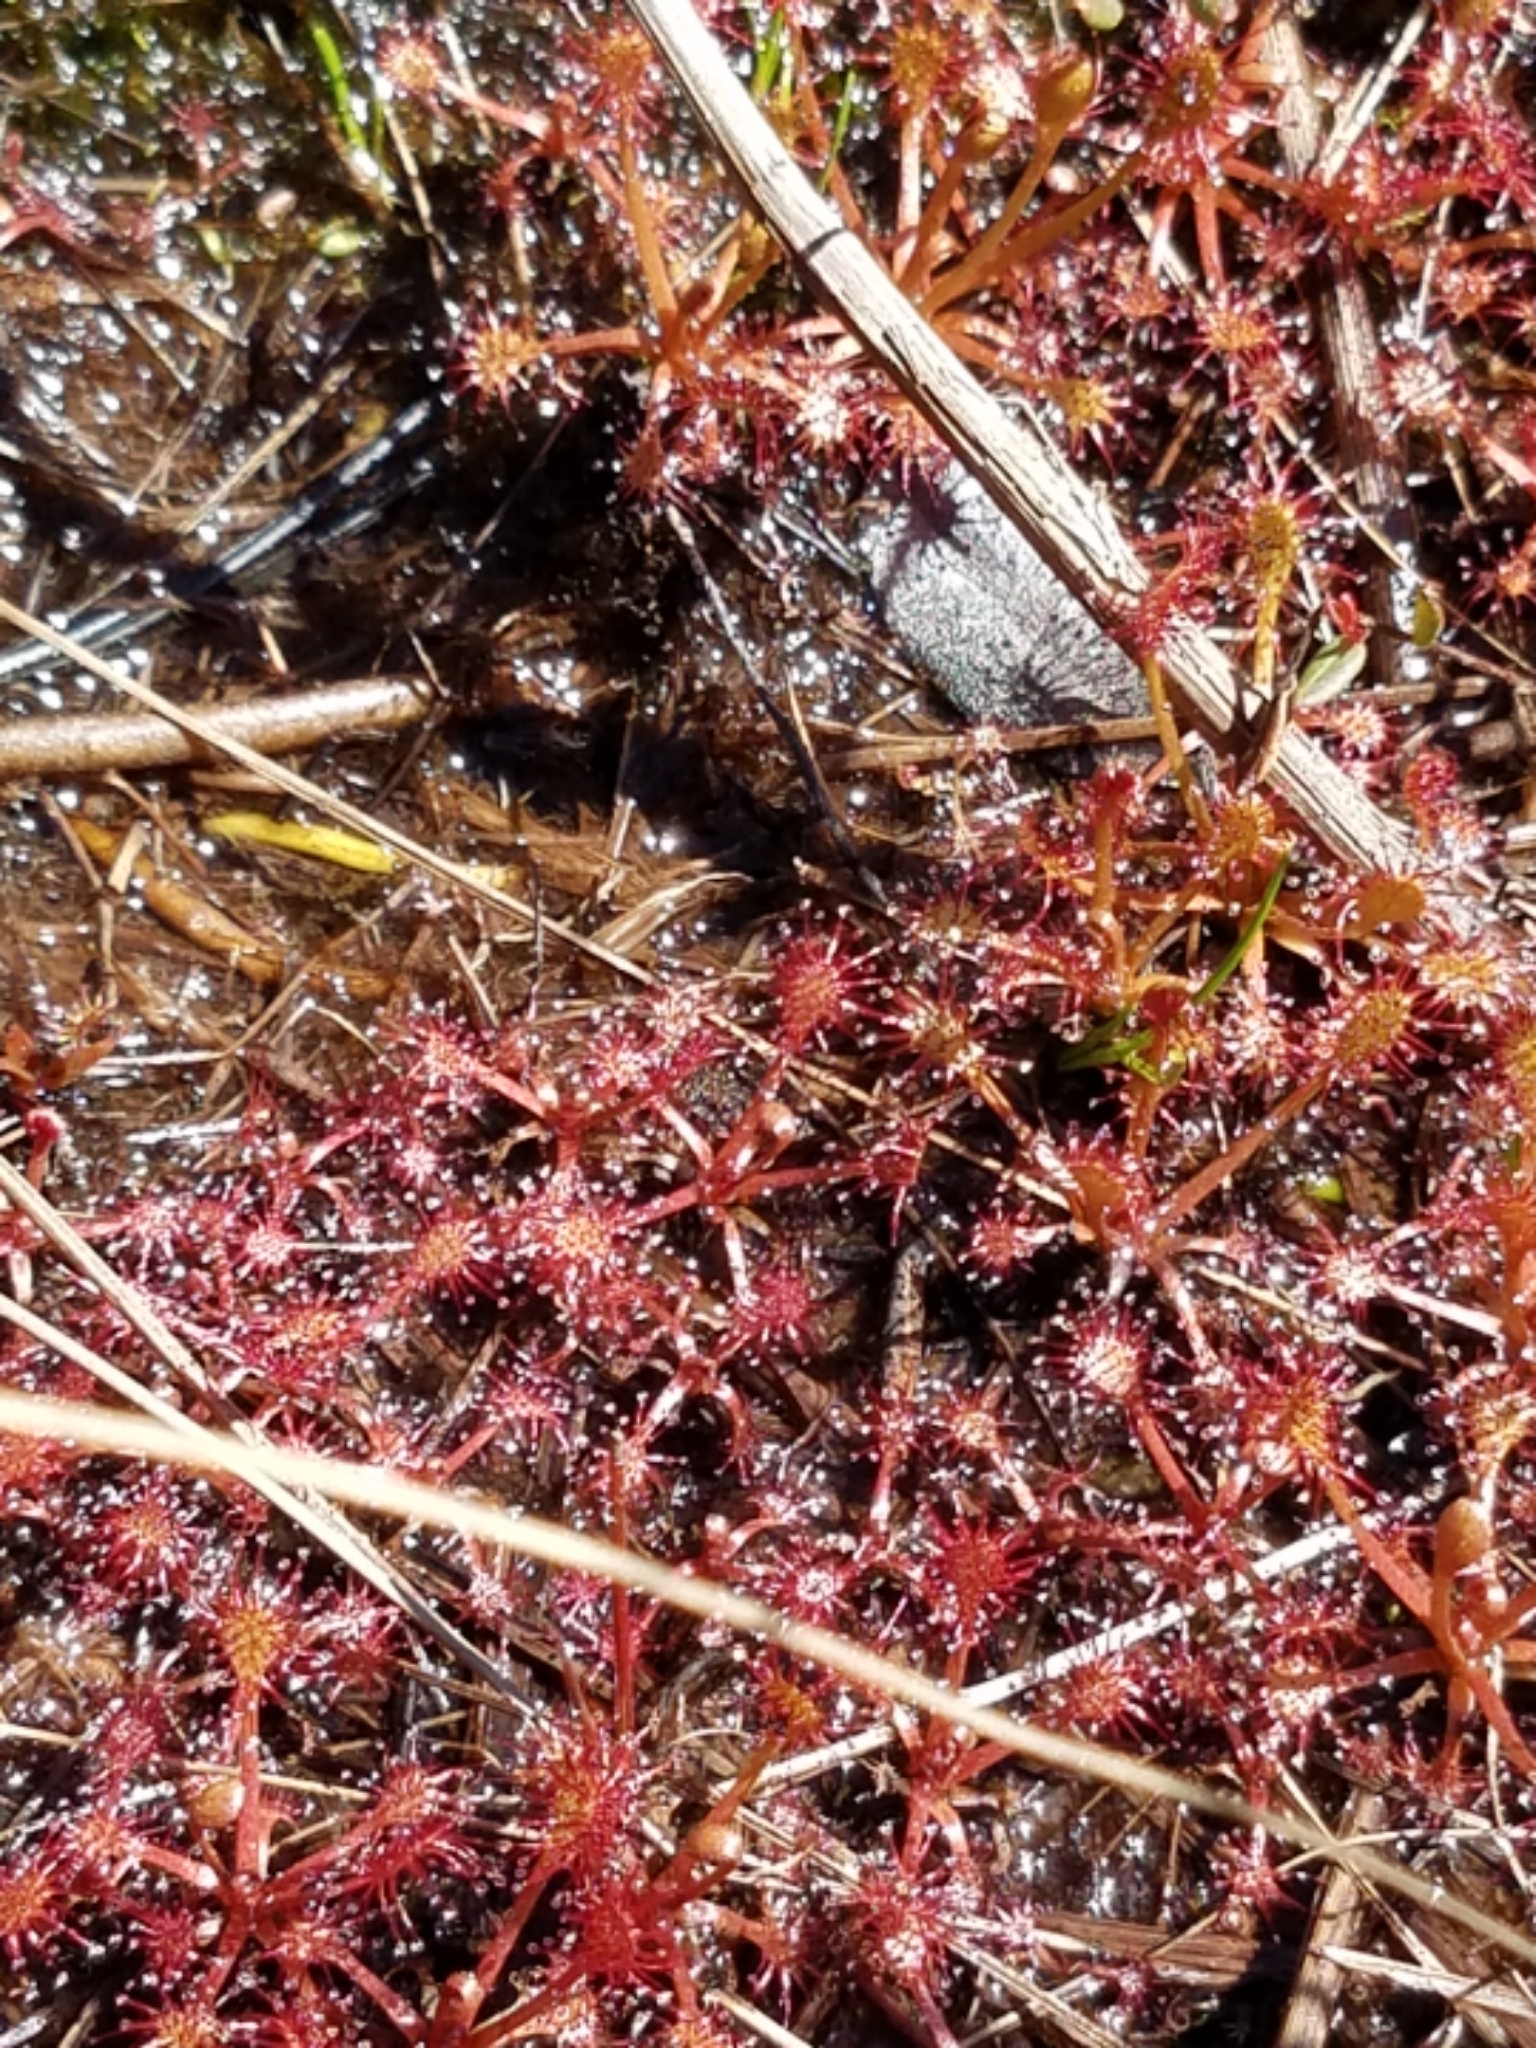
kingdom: Plantae
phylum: Tracheophyta
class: Magnoliopsida
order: Caryophyllales
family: Droseraceae
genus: Drosera
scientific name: Drosera intermedia
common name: Oblong-leaved sundew
